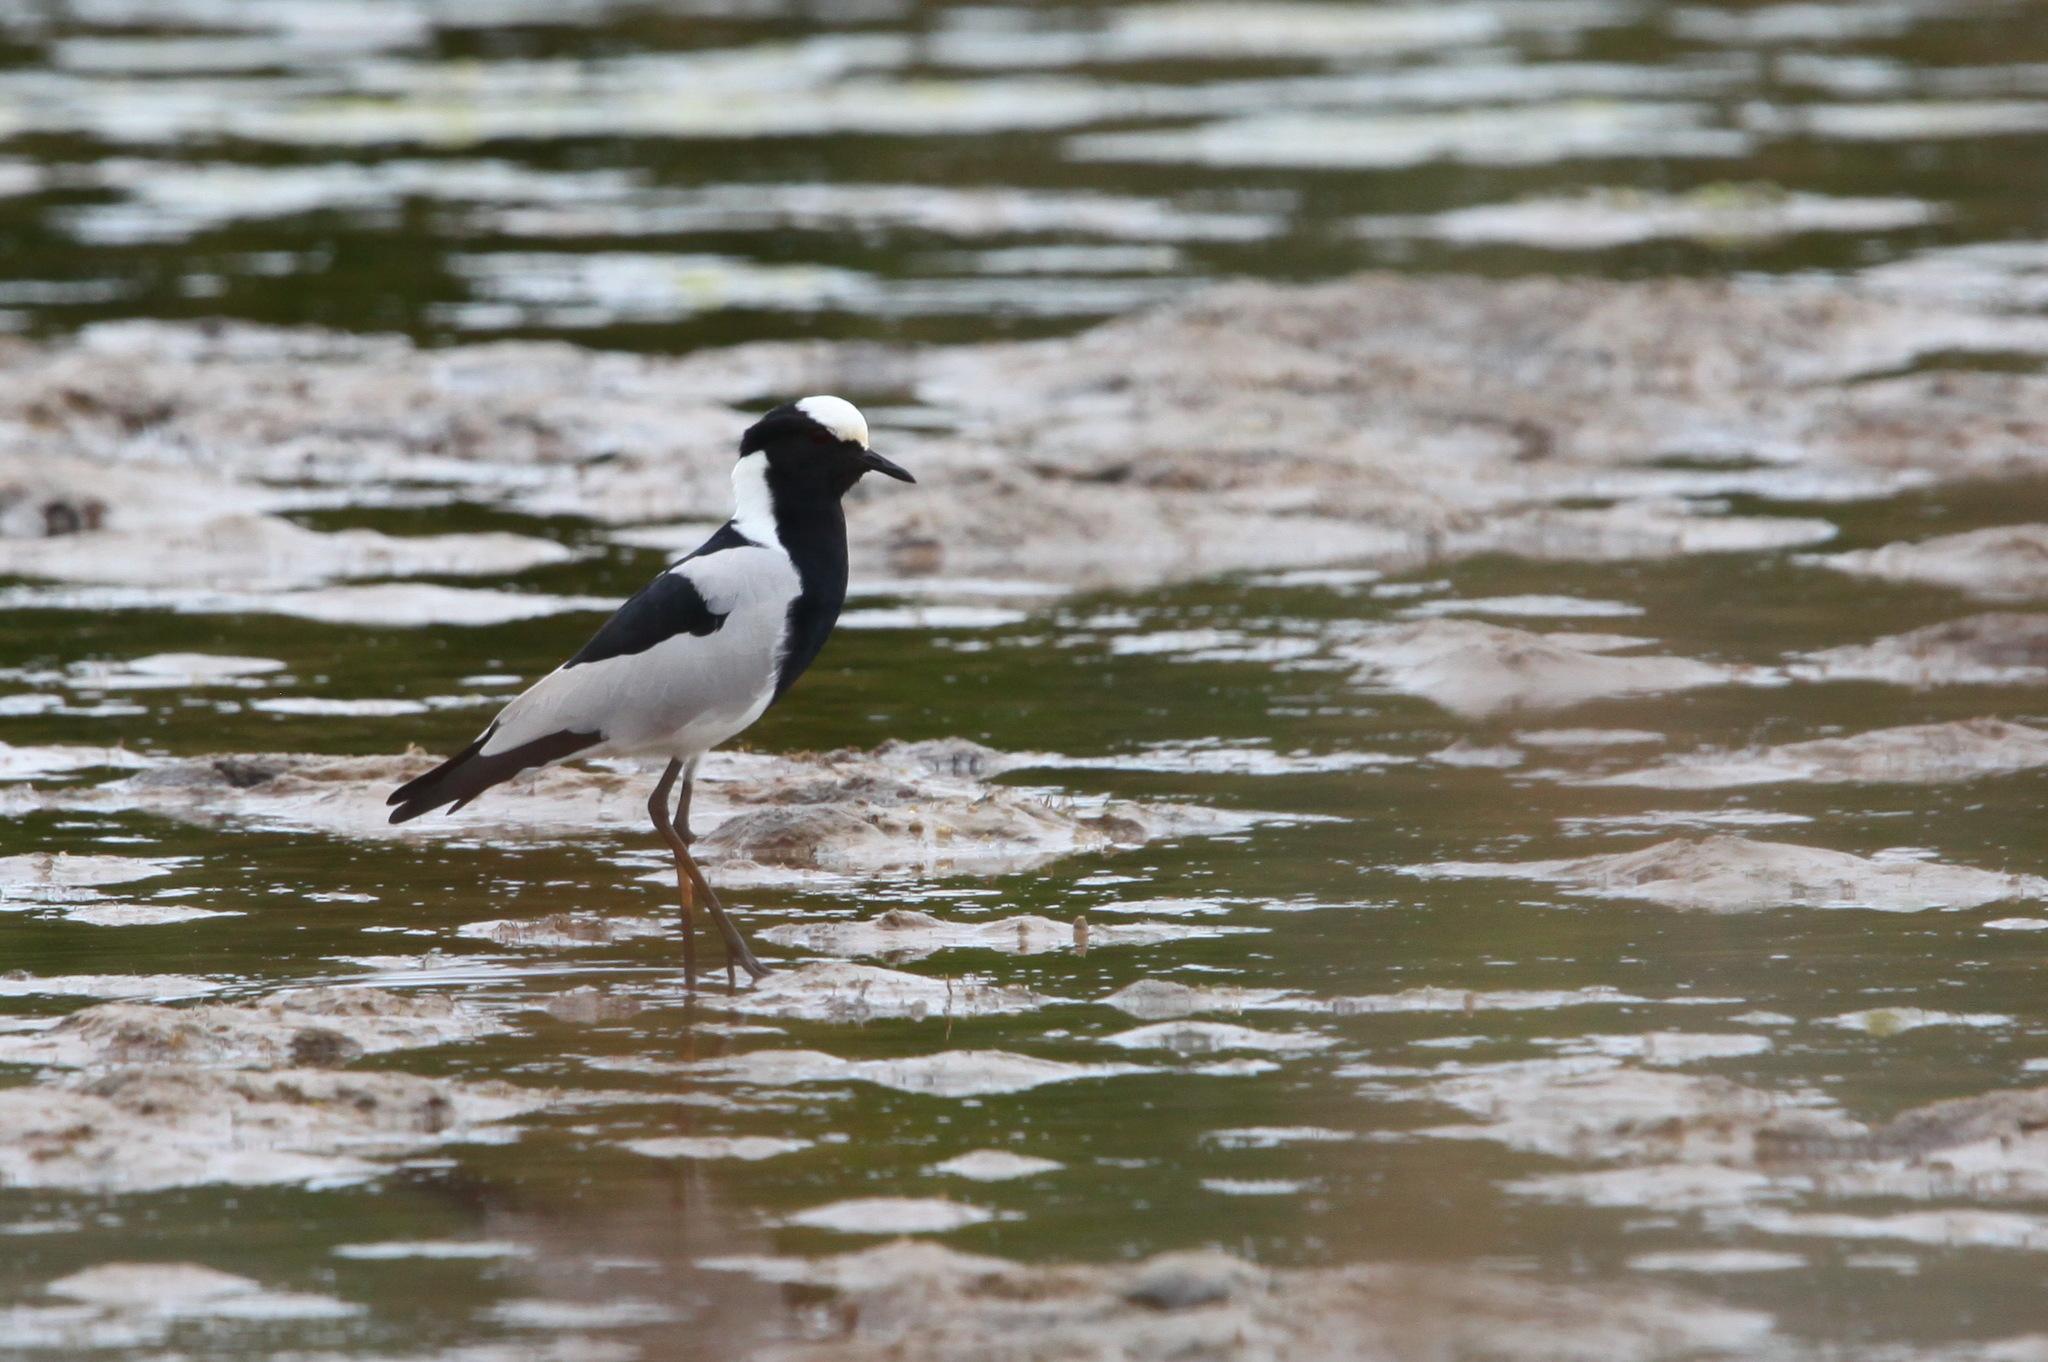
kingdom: Animalia
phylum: Chordata
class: Aves
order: Charadriiformes
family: Charadriidae
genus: Vanellus
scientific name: Vanellus armatus
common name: Blacksmith lapwing
